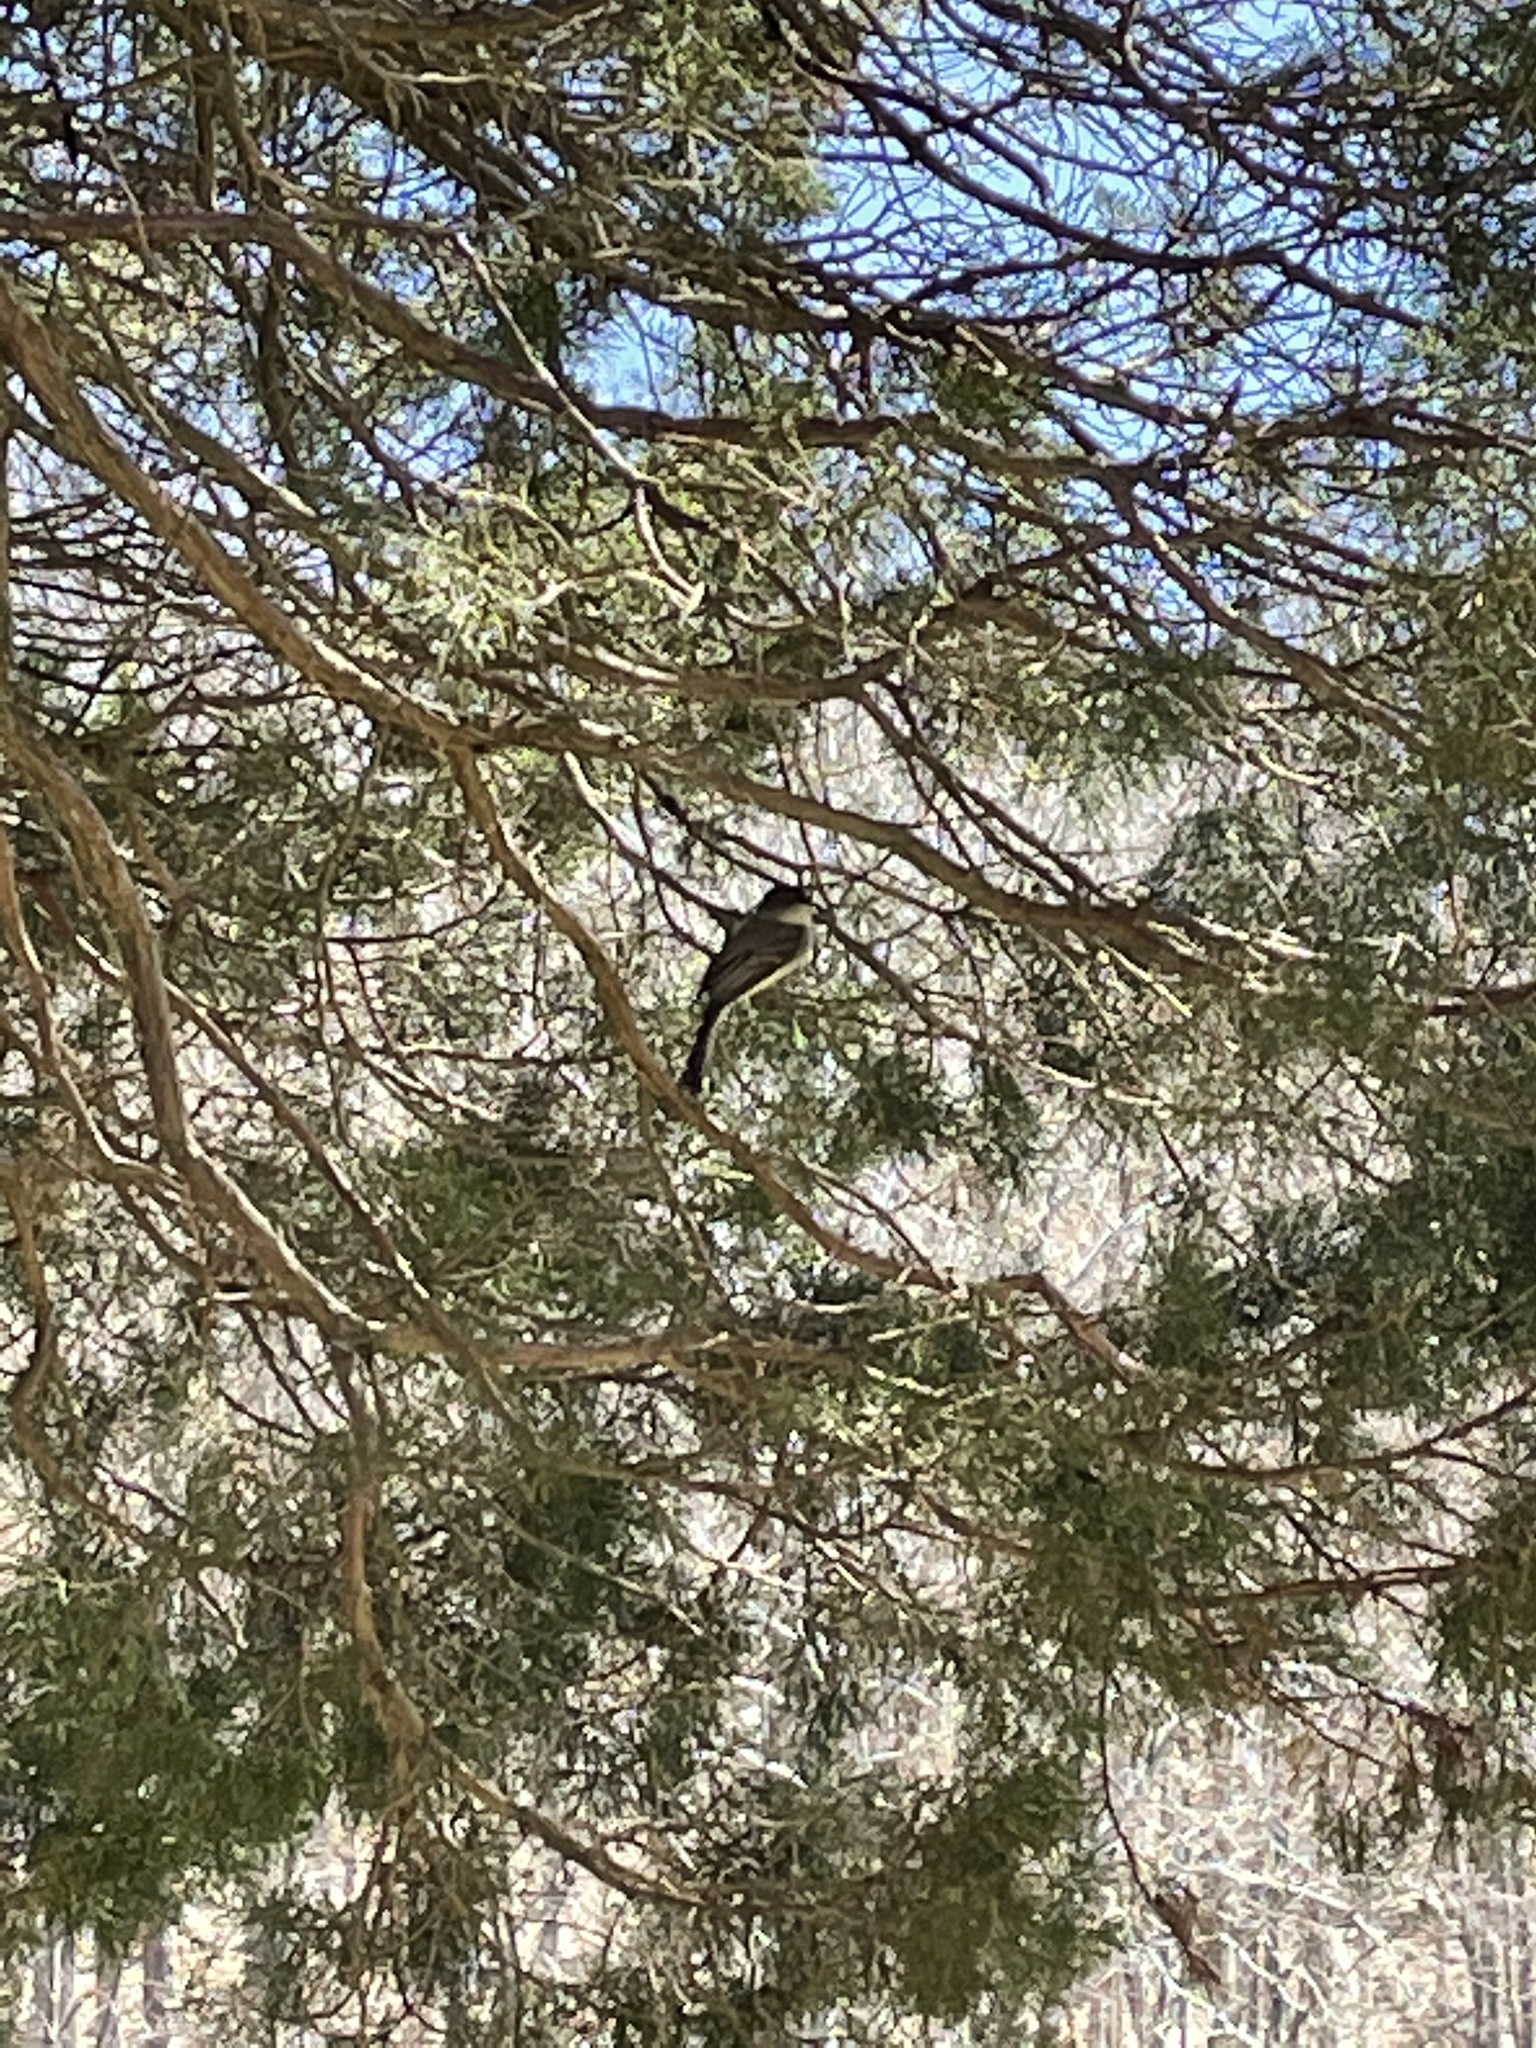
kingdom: Animalia
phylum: Chordata
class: Aves
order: Passeriformes
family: Tyrannidae
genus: Sayornis
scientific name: Sayornis phoebe
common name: Eastern phoebe
